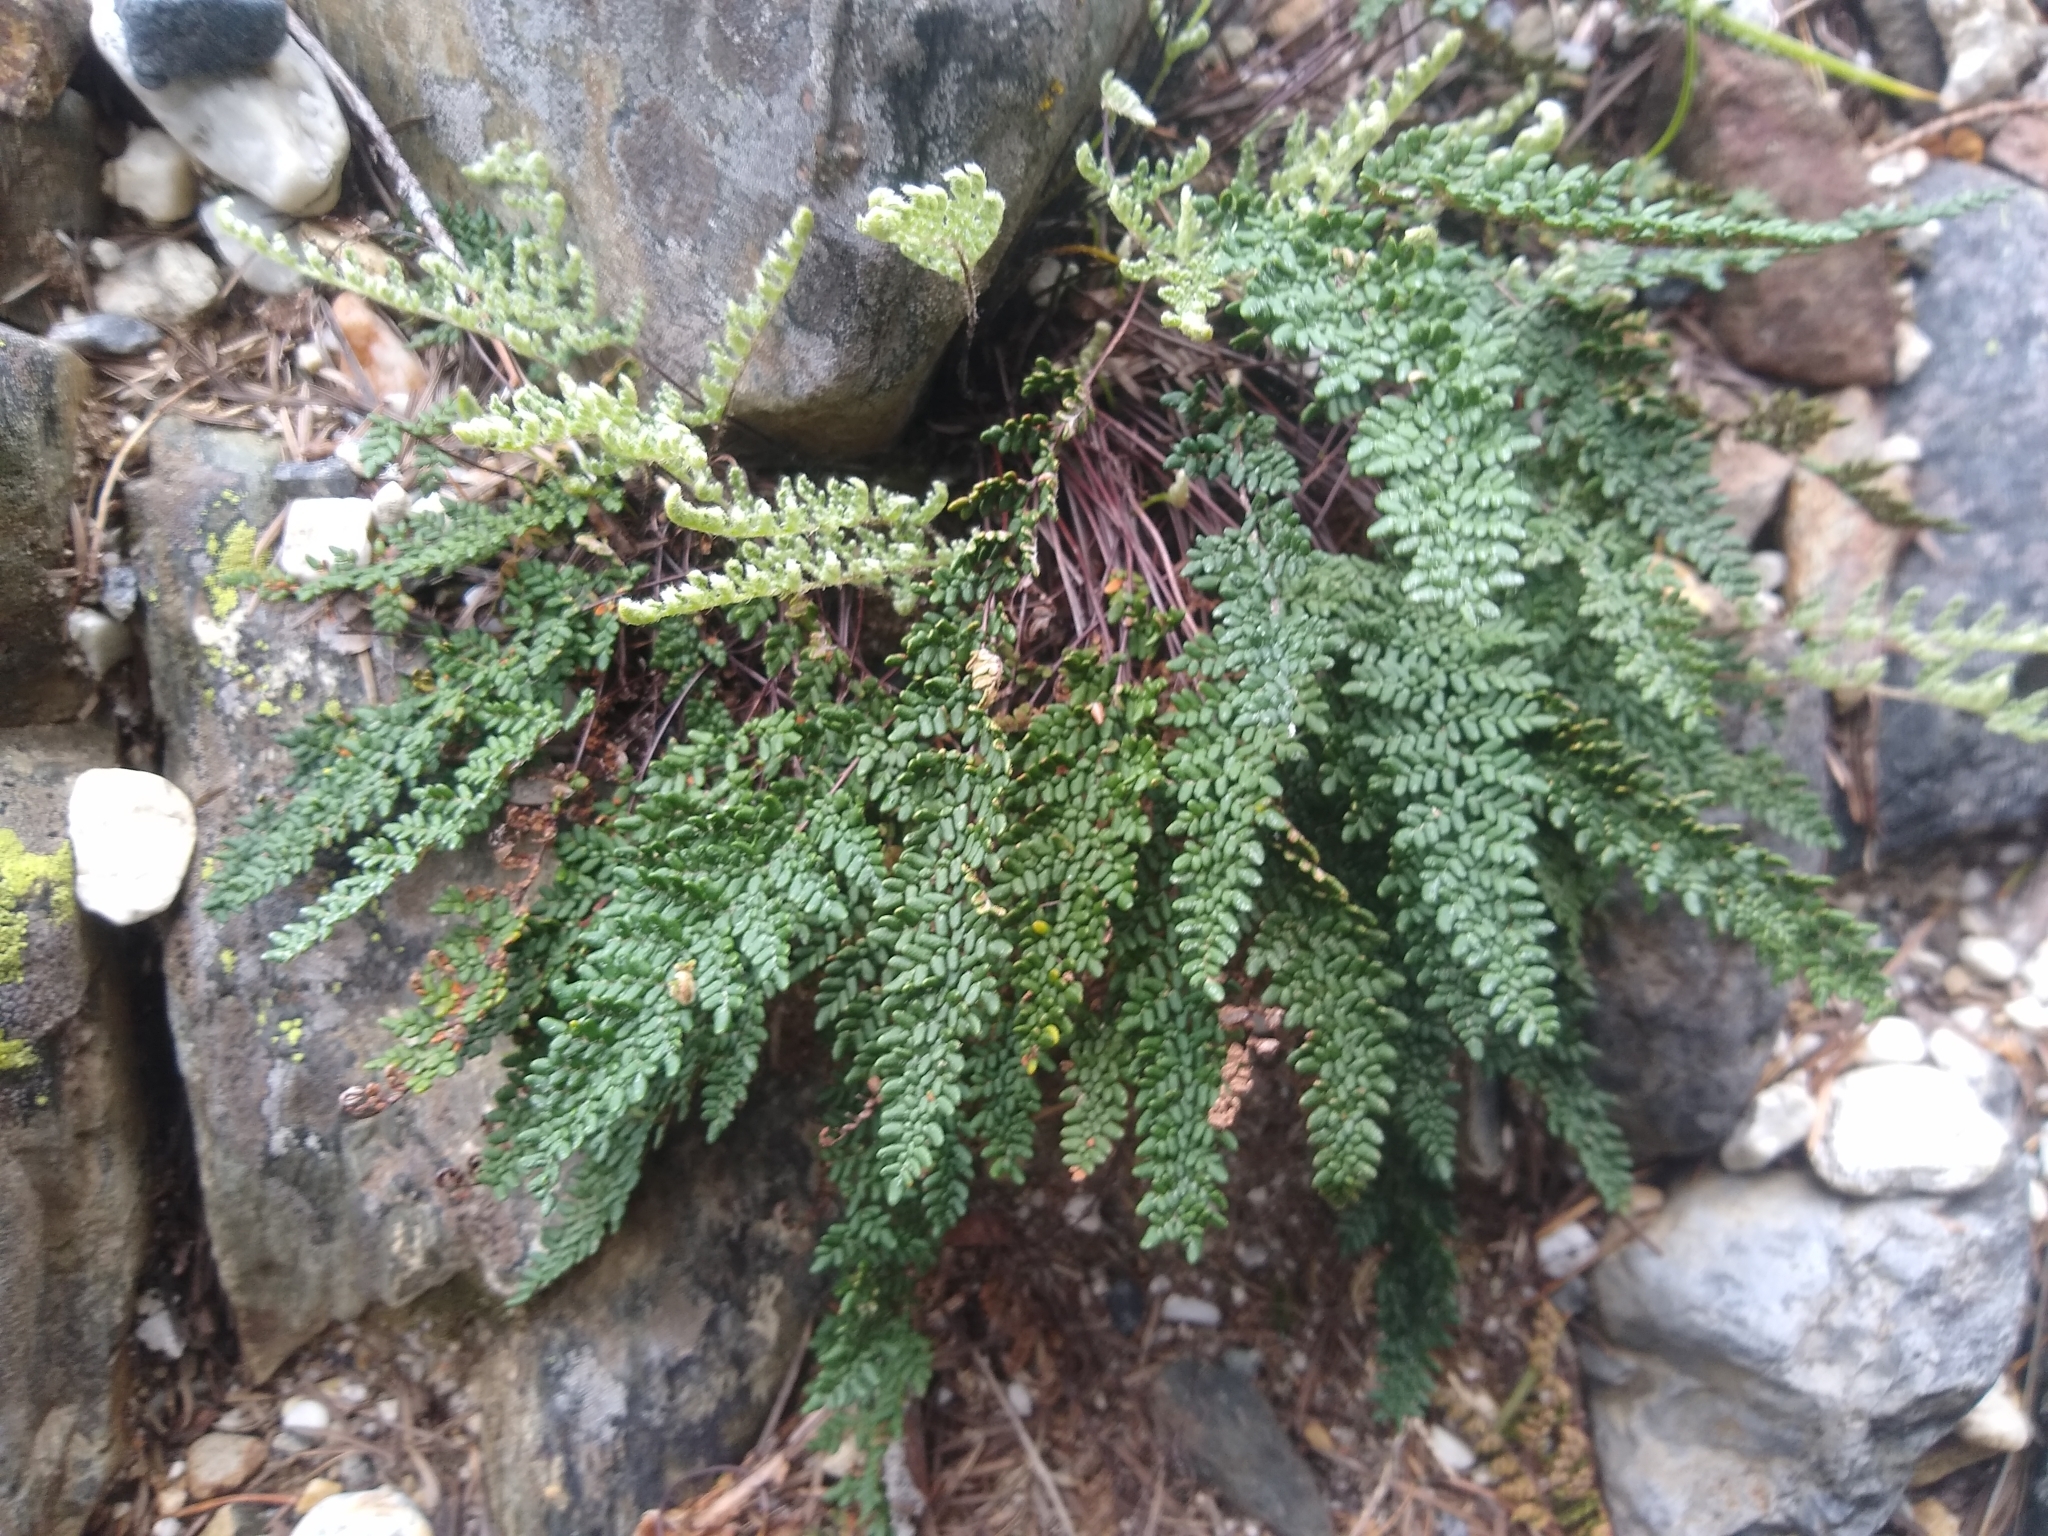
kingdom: Plantae
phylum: Tracheophyta
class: Polypodiopsida
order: Polypodiales
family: Pteridaceae
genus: Myriopteris
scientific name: Myriopteris gracillima
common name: Lace fern
